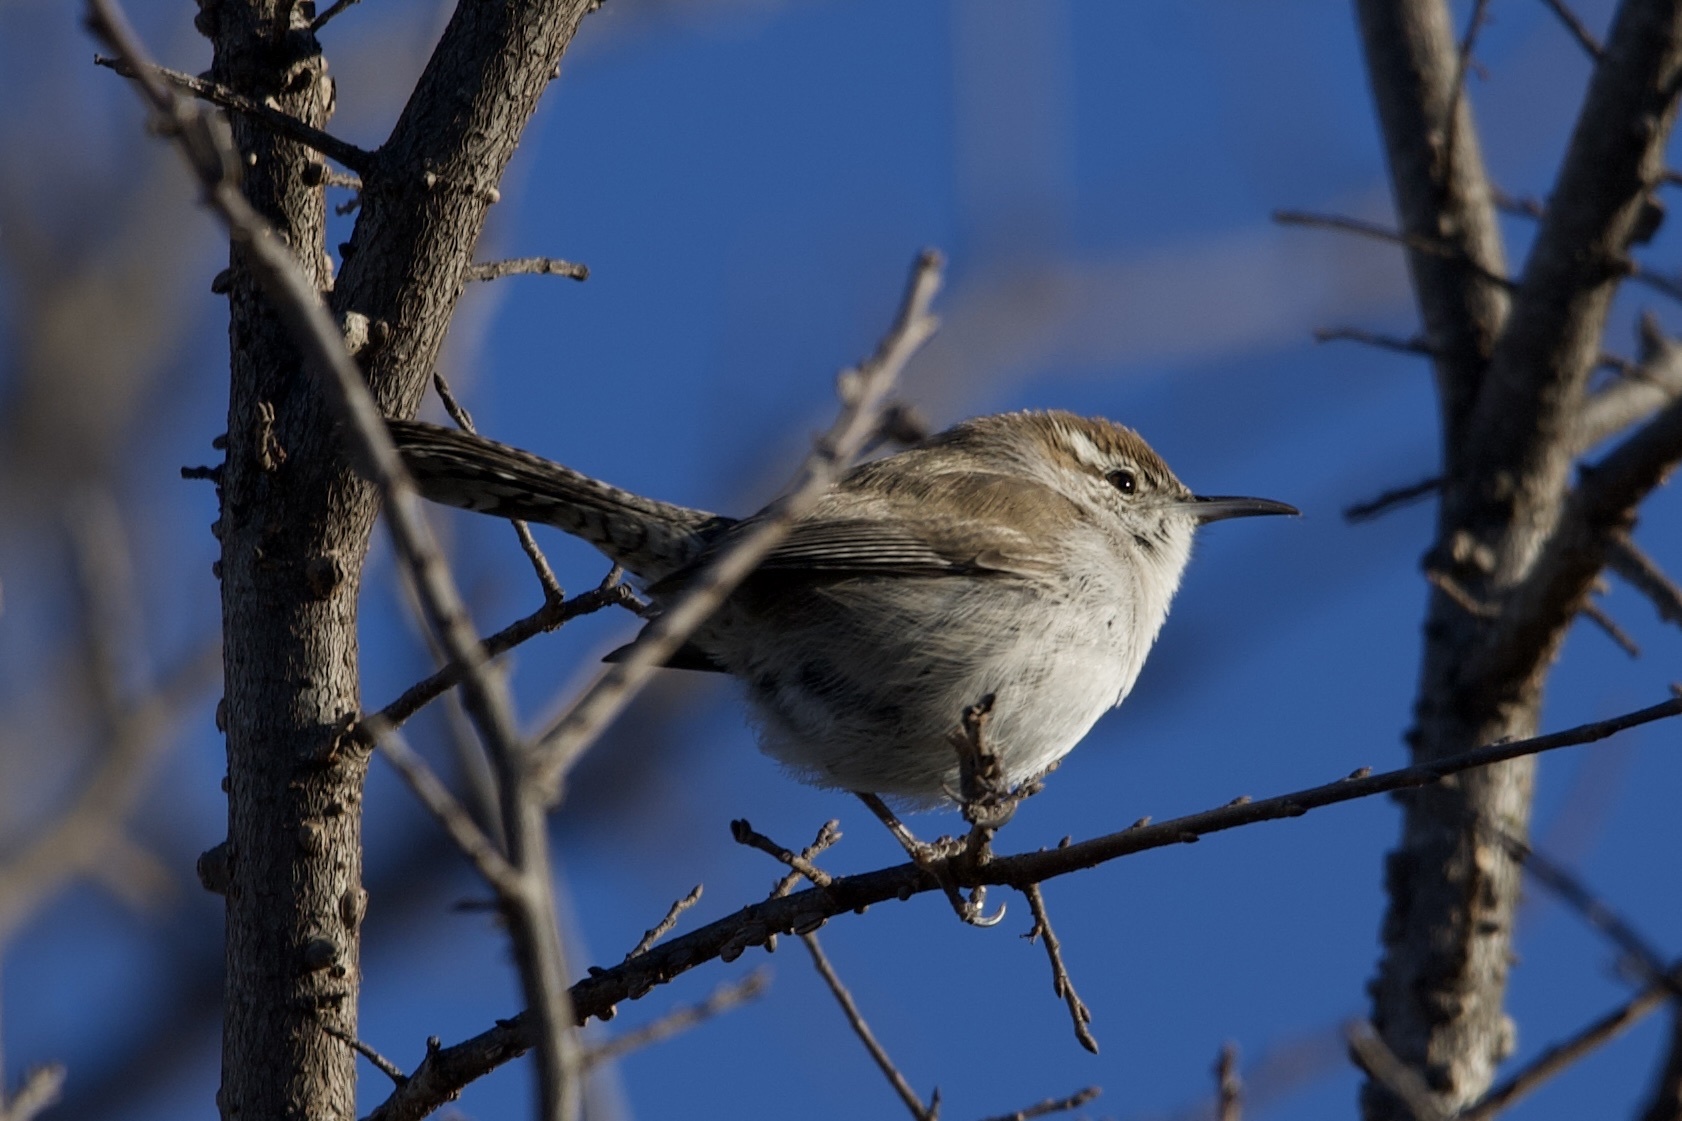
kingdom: Animalia
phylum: Chordata
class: Aves
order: Passeriformes
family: Troglodytidae
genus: Thryomanes
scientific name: Thryomanes bewickii
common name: Bewick's wren
